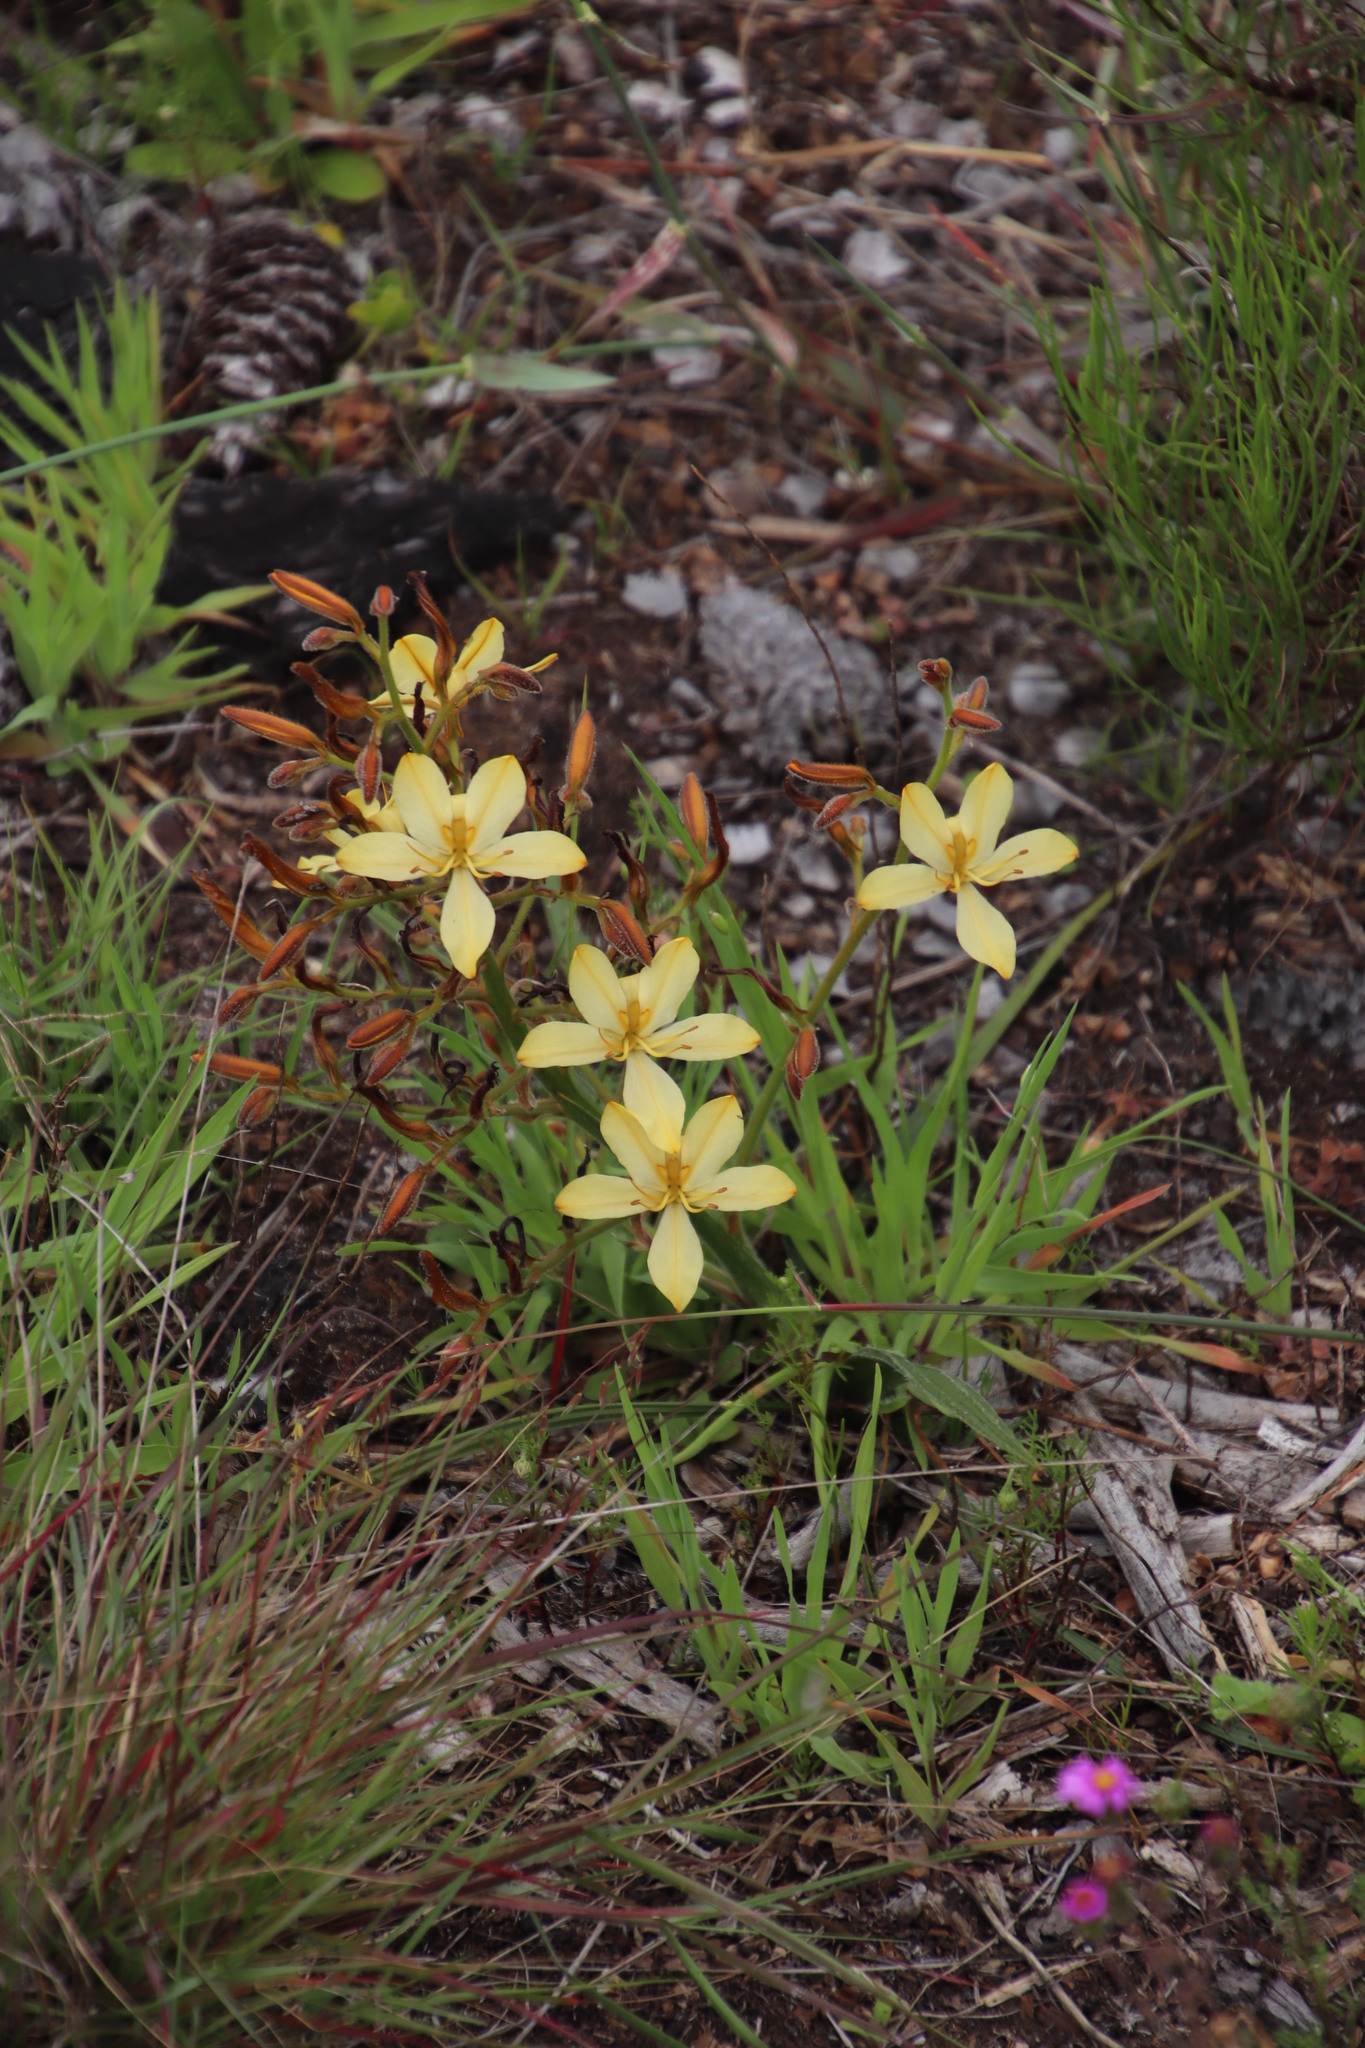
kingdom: Plantae
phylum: Tracheophyta
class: Liliopsida
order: Commelinales
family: Haemodoraceae
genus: Wachendorfia
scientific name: Wachendorfia paniculata
